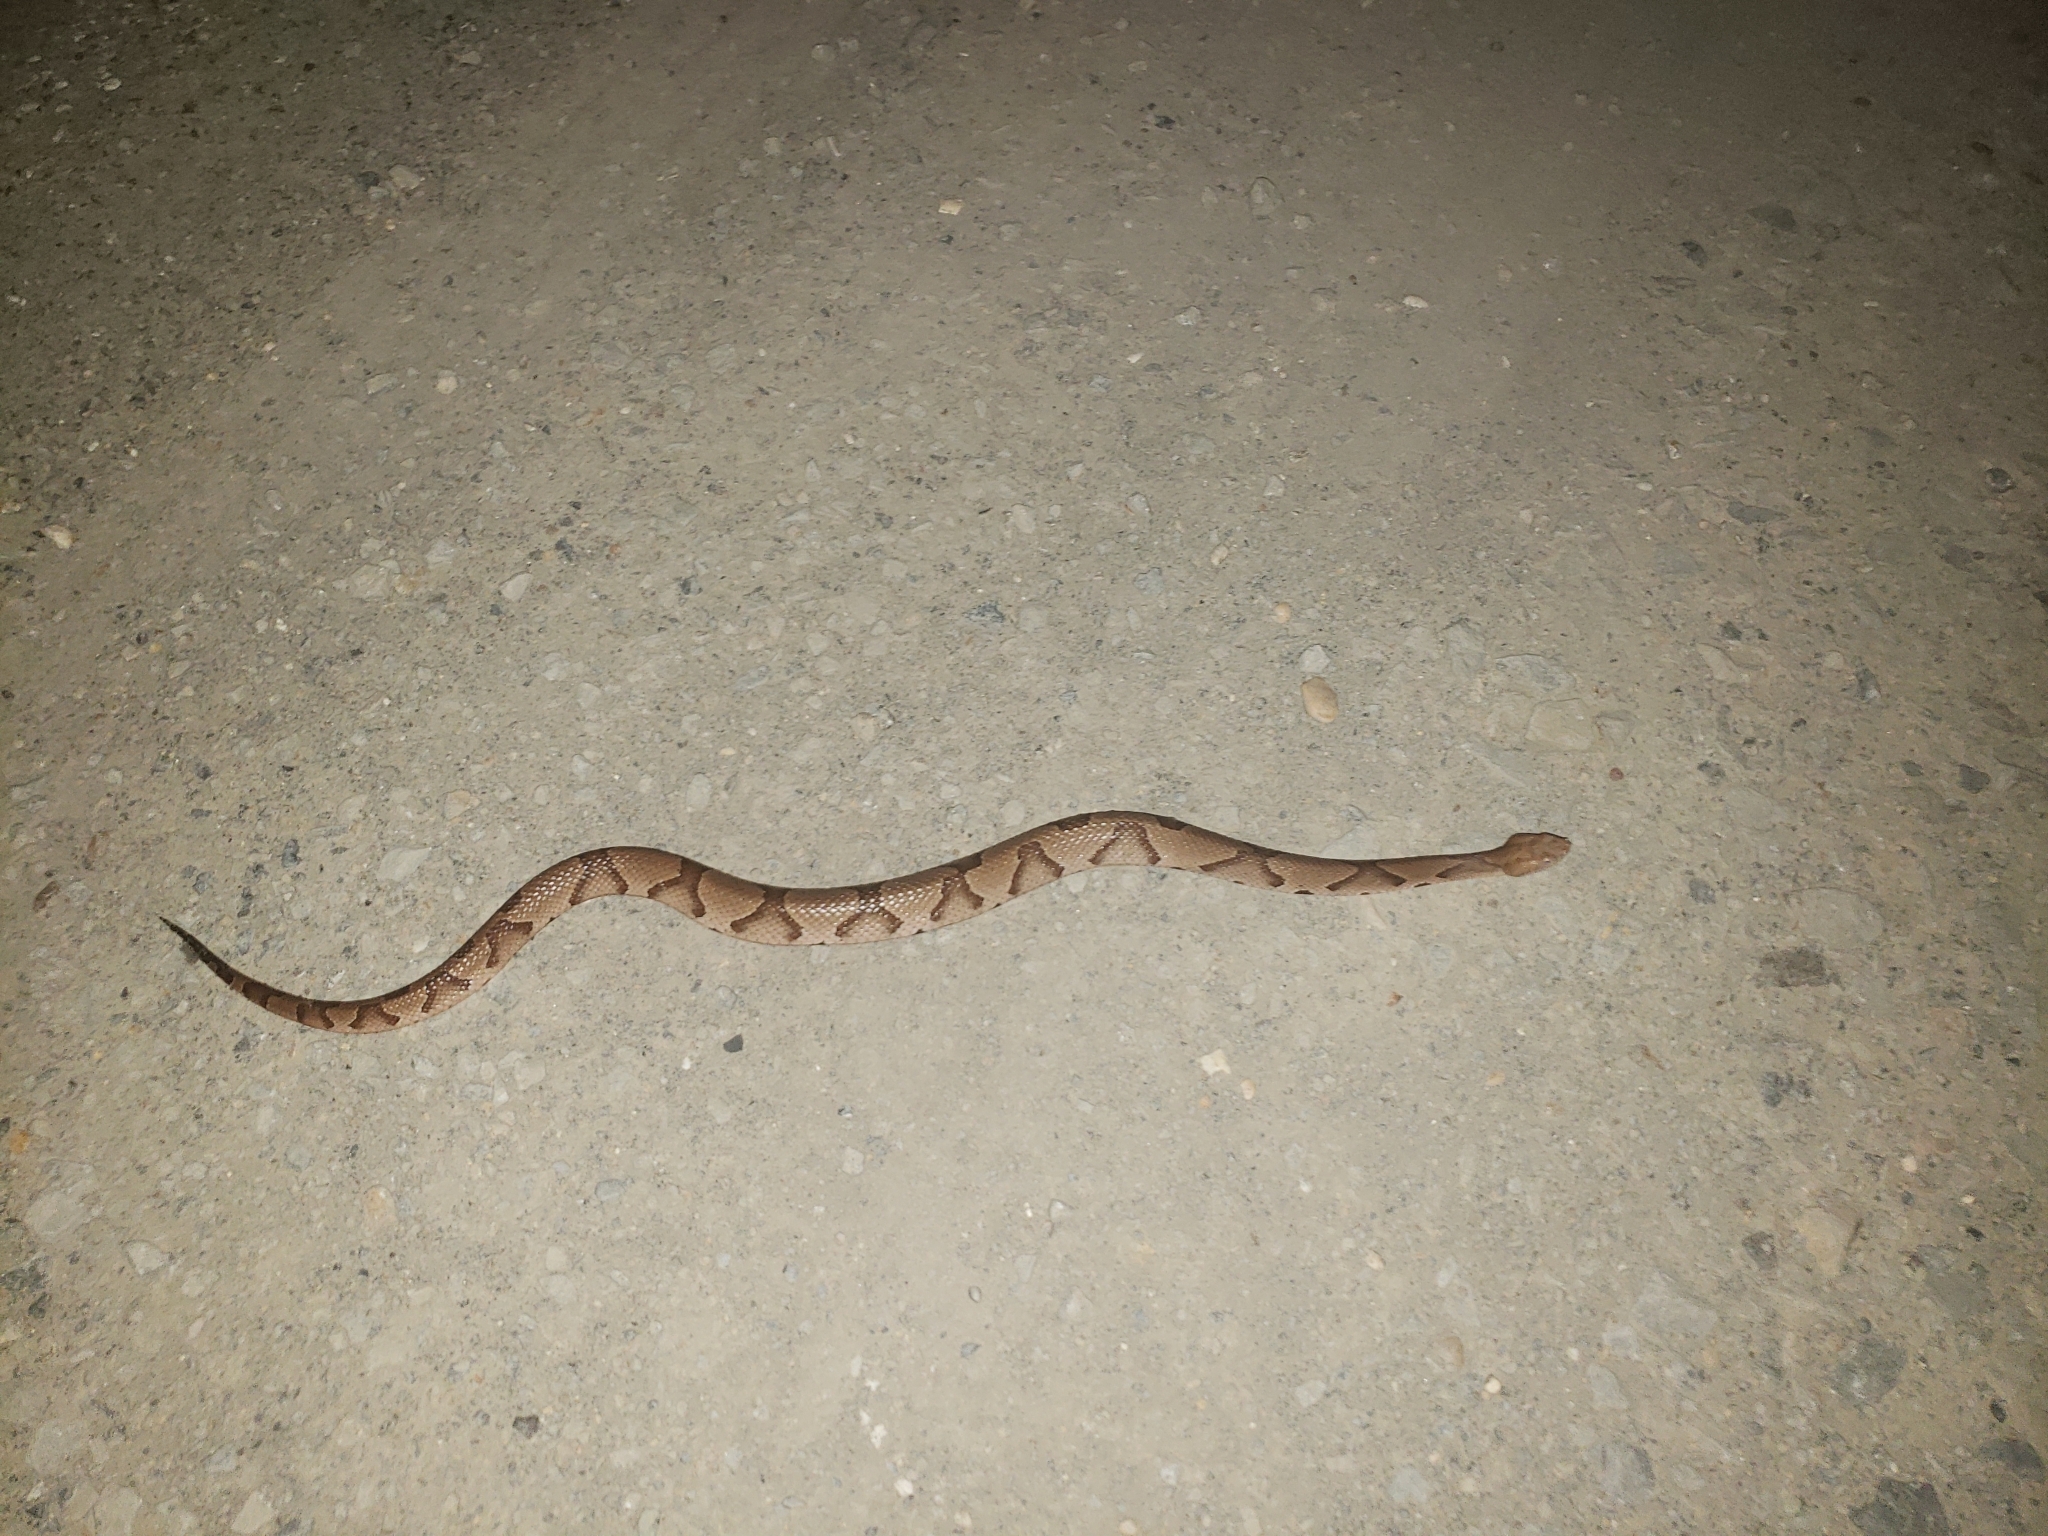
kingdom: Animalia
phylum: Chordata
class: Squamata
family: Viperidae
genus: Agkistrodon
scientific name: Agkistrodon contortrix
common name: Northern copperhead
